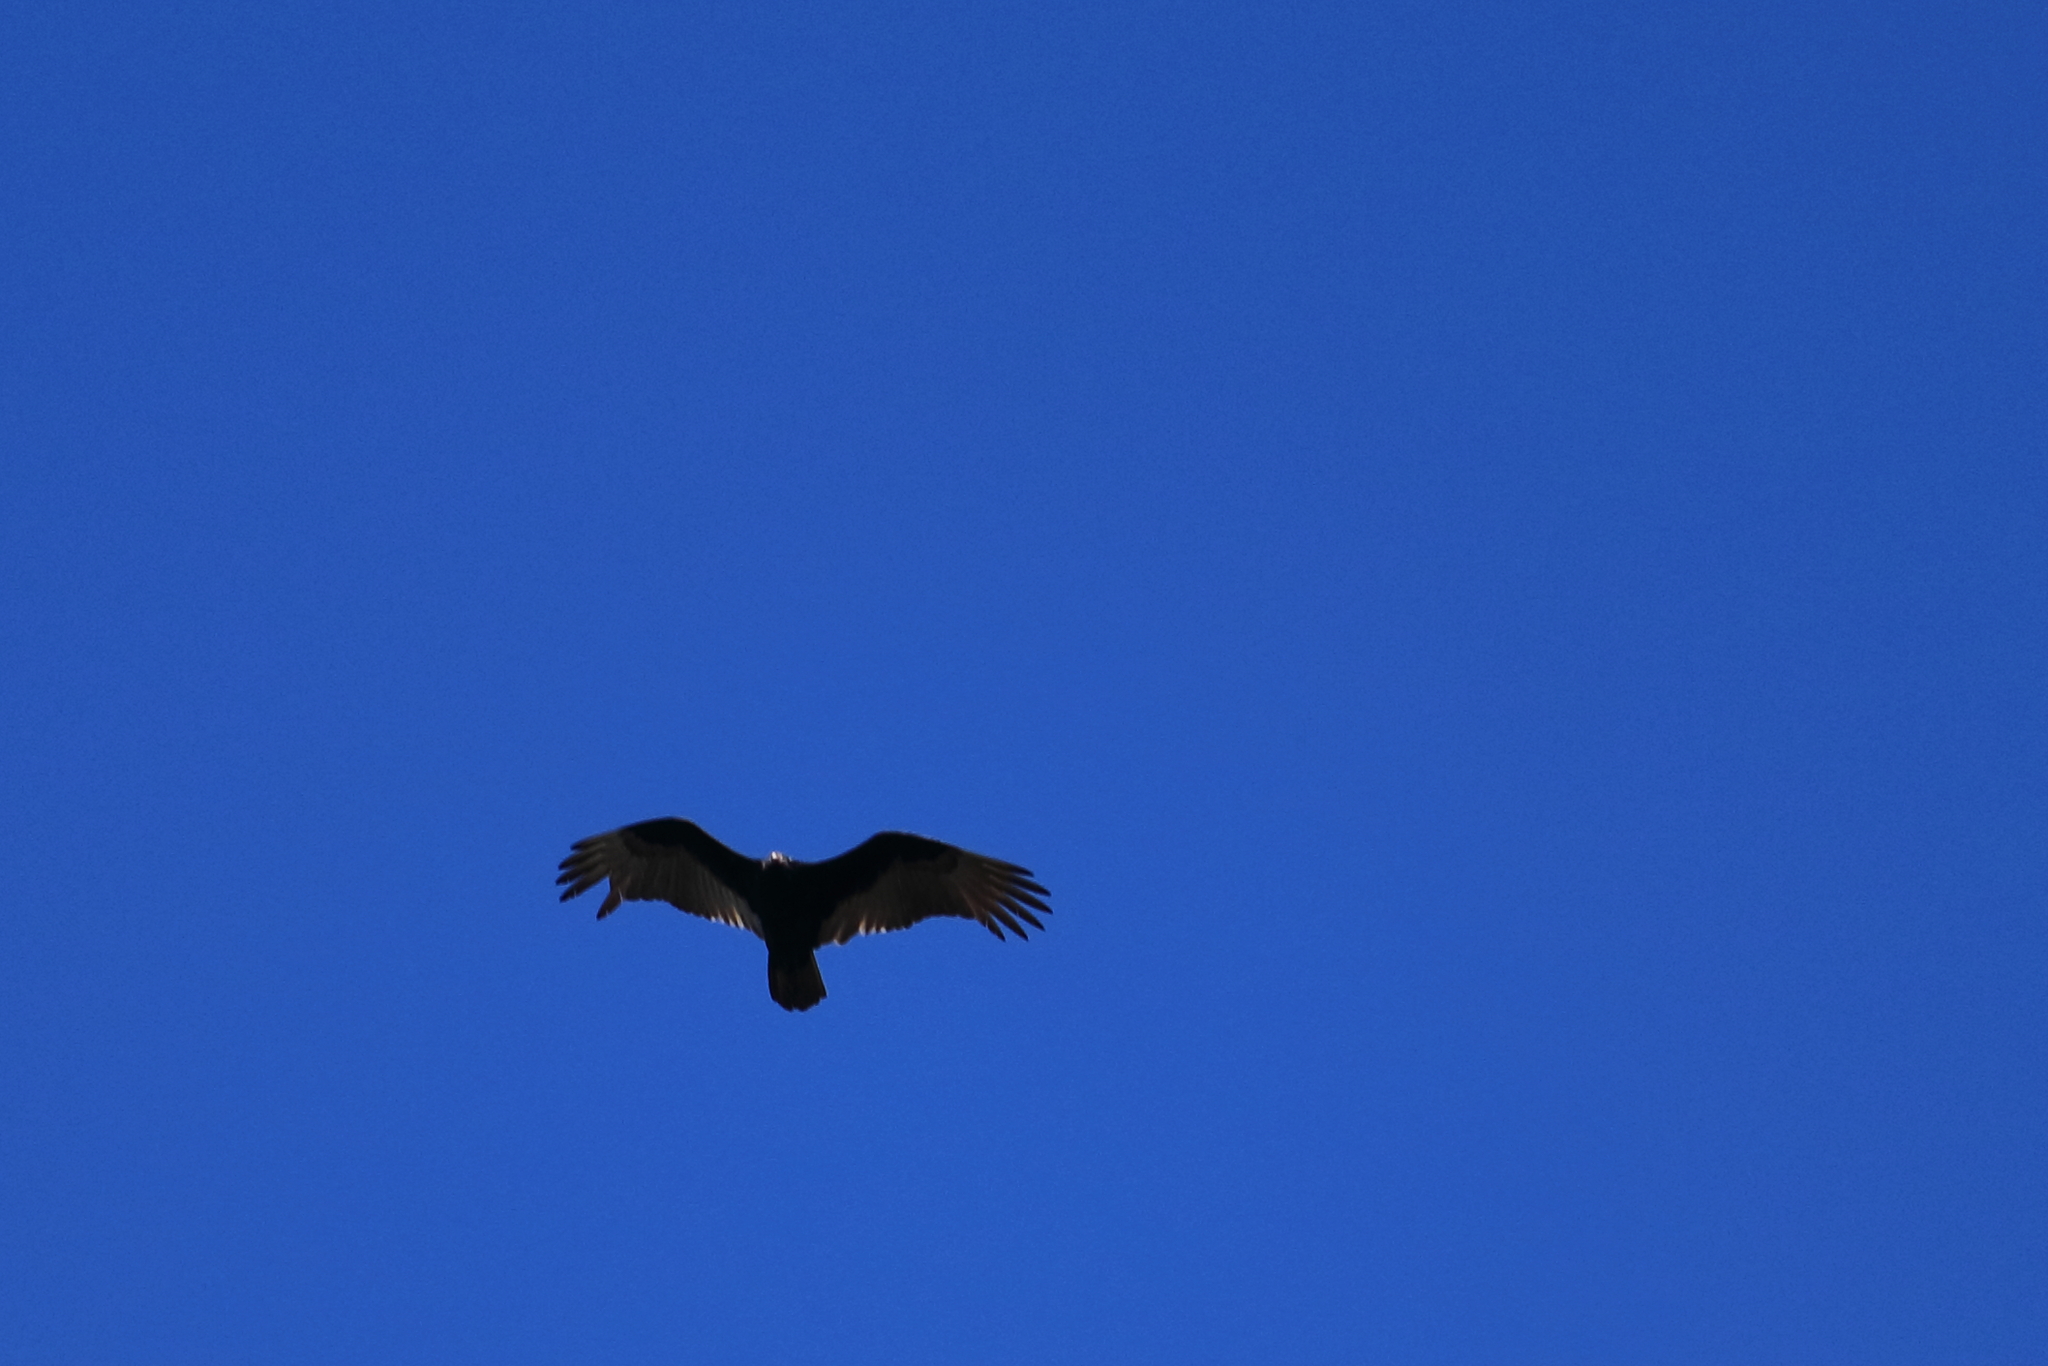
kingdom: Animalia
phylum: Chordata
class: Aves
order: Accipitriformes
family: Cathartidae
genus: Cathartes
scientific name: Cathartes aura
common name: Turkey vulture
